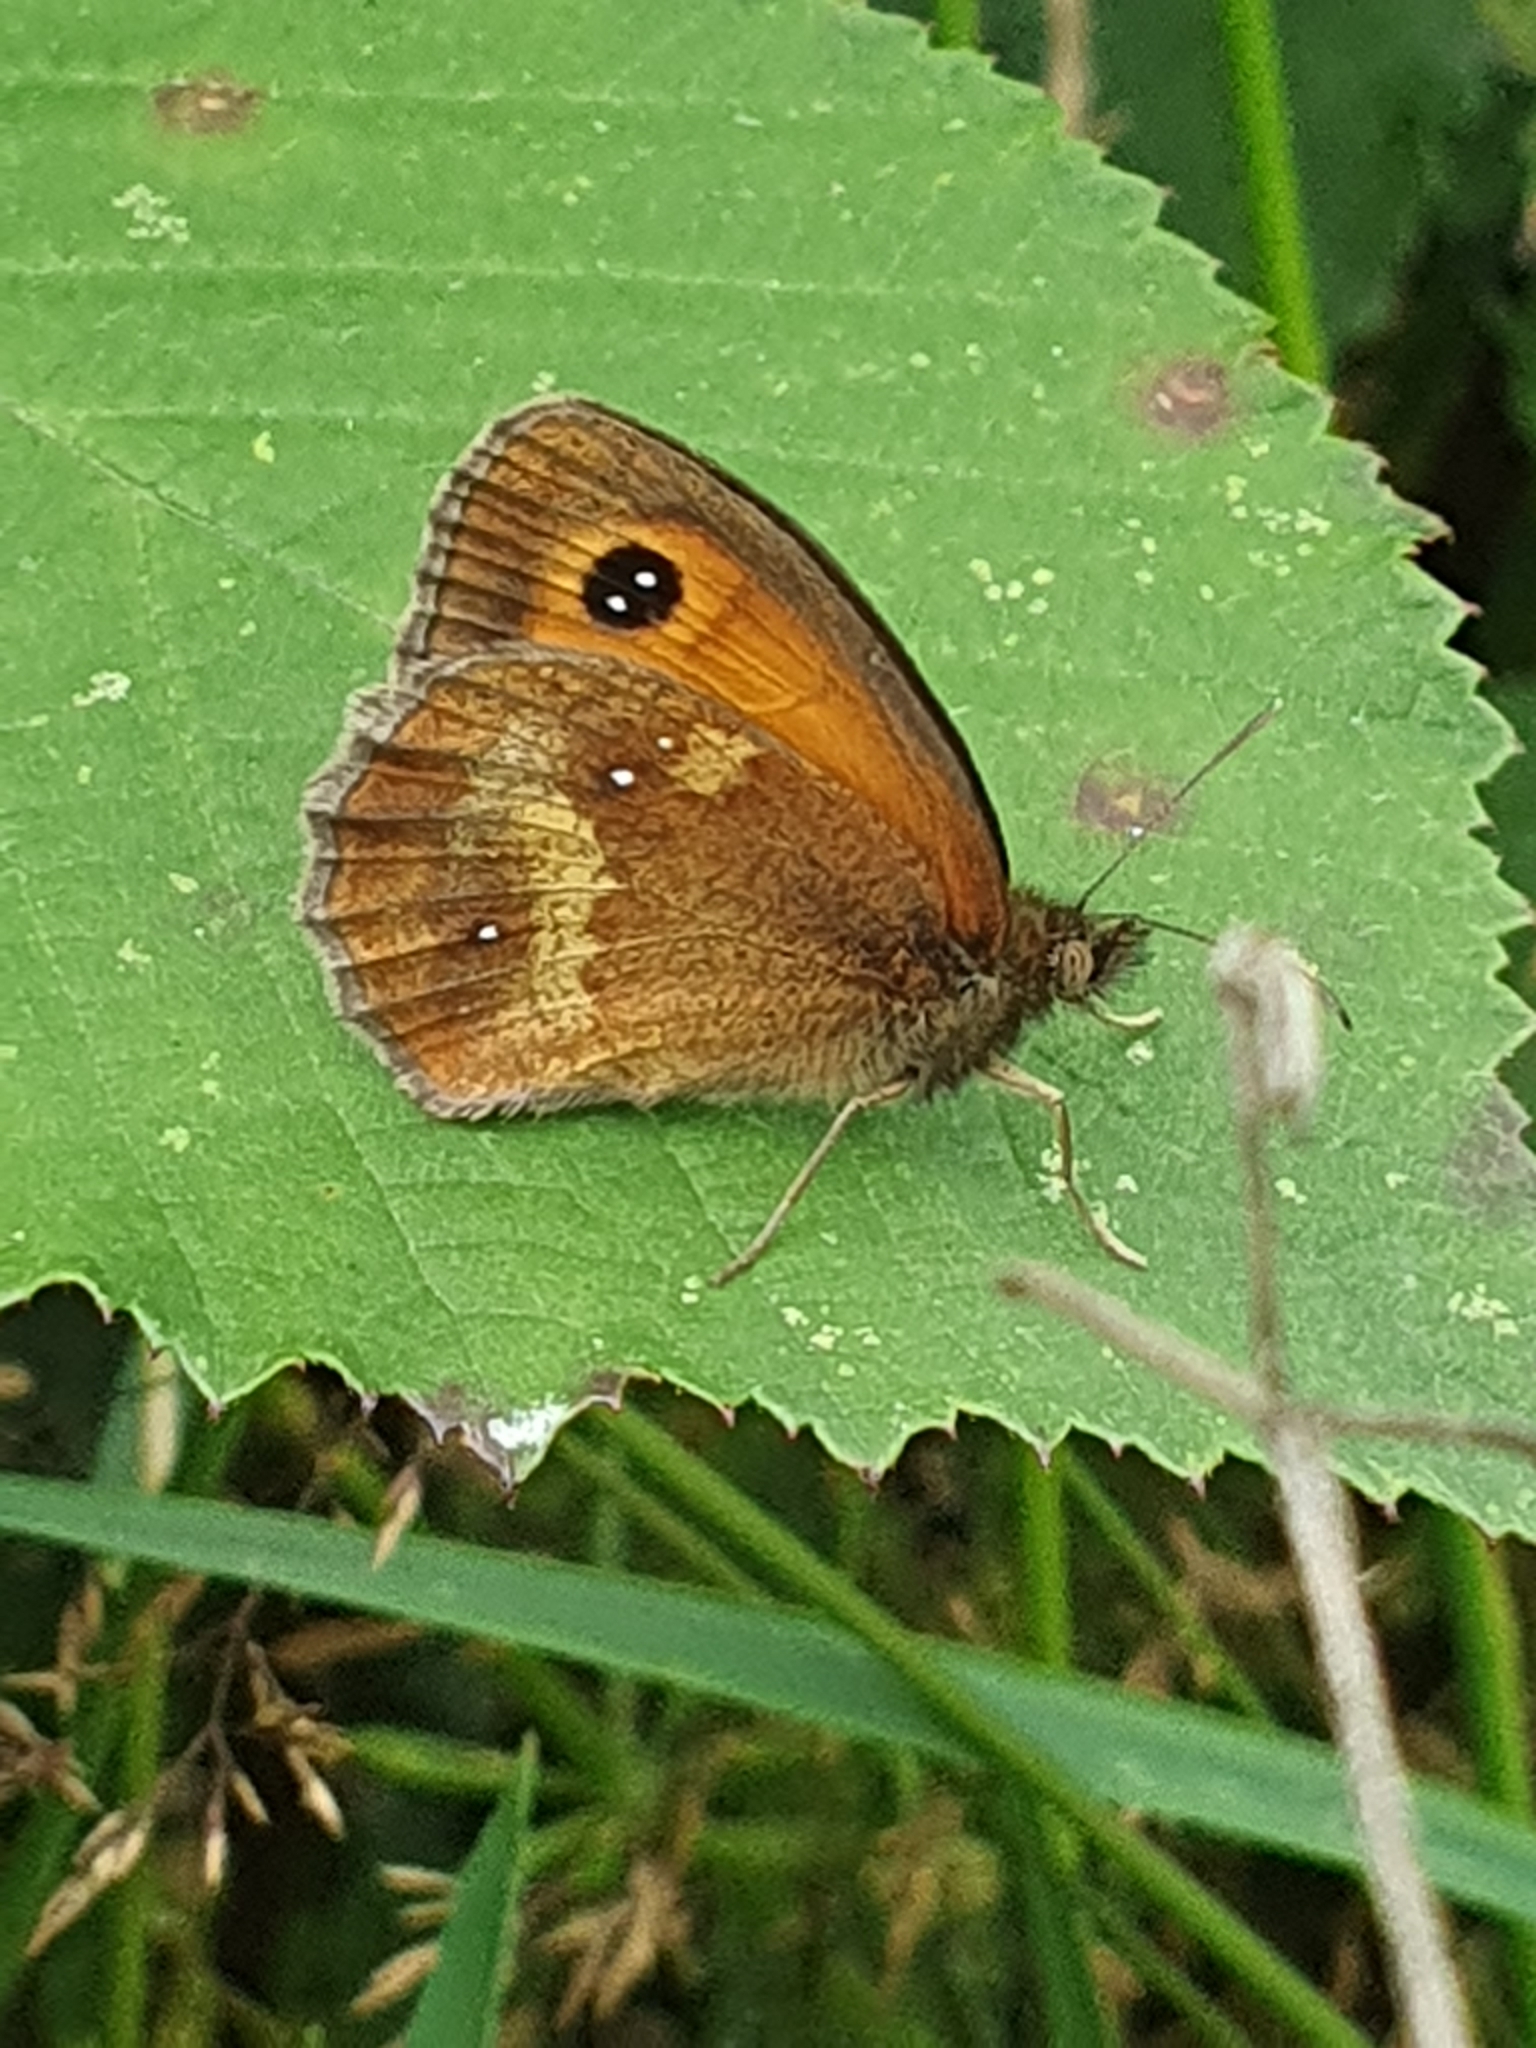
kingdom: Animalia
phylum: Arthropoda
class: Insecta
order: Lepidoptera
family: Nymphalidae
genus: Pyronia
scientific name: Pyronia tithonus
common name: Gatekeeper
